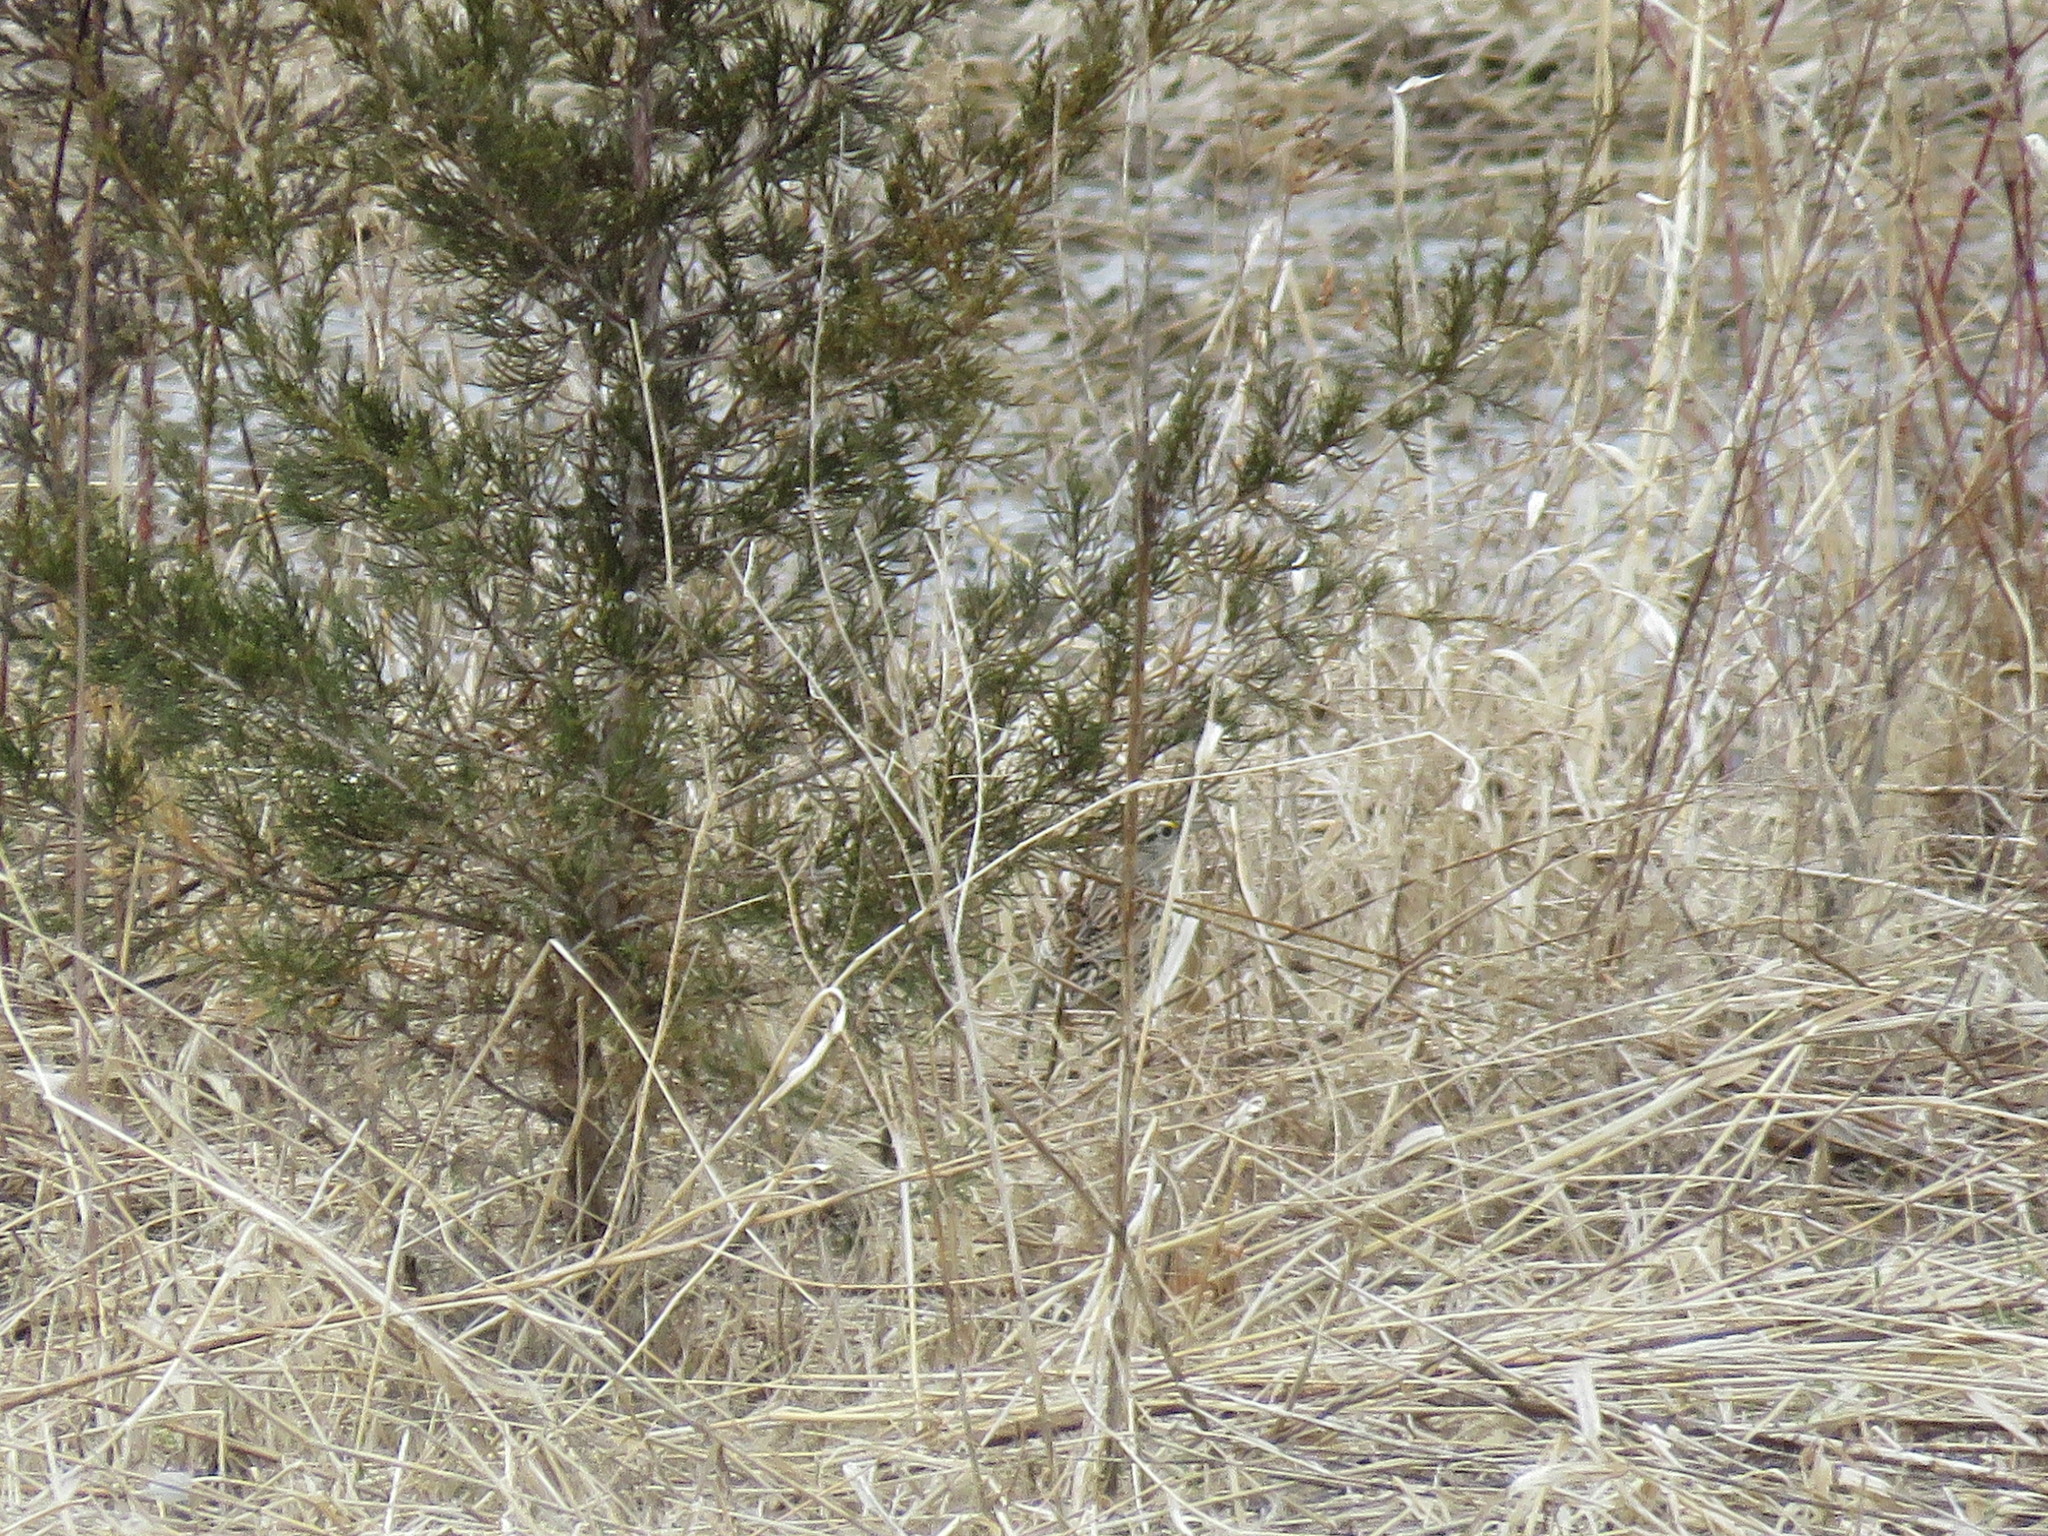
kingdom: Animalia
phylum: Chordata
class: Aves
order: Passeriformes
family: Icteridae
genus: Sturnella
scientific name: Sturnella magna
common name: Eastern meadowlark
